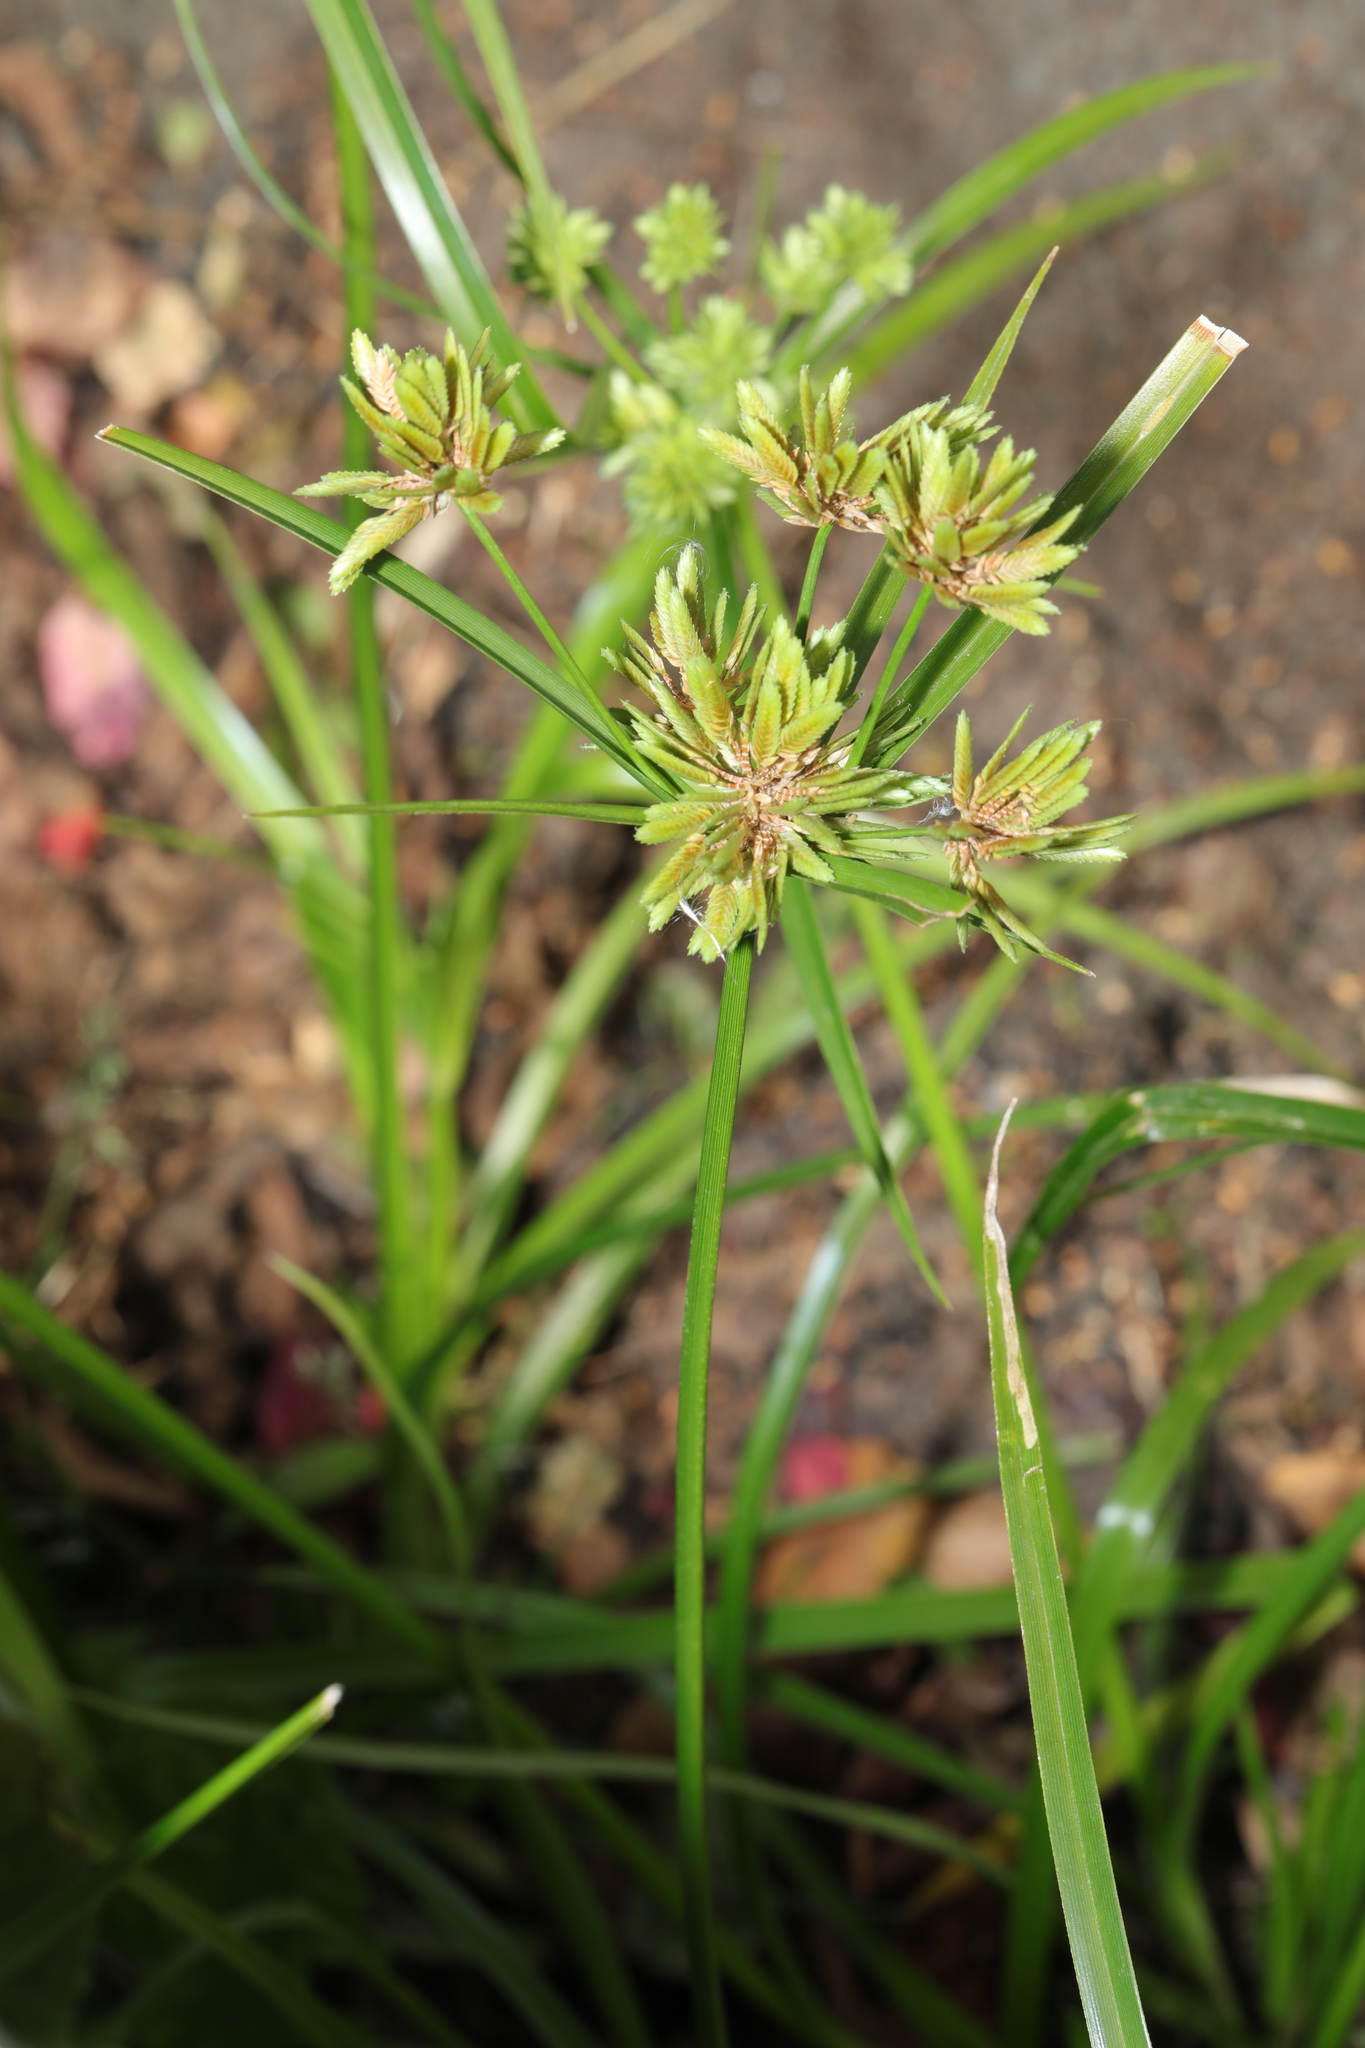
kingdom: Plantae
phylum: Tracheophyta
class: Liliopsida
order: Poales
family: Cyperaceae
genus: Cyperus
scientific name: Cyperus eragrostis
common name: Tall flatsedge
